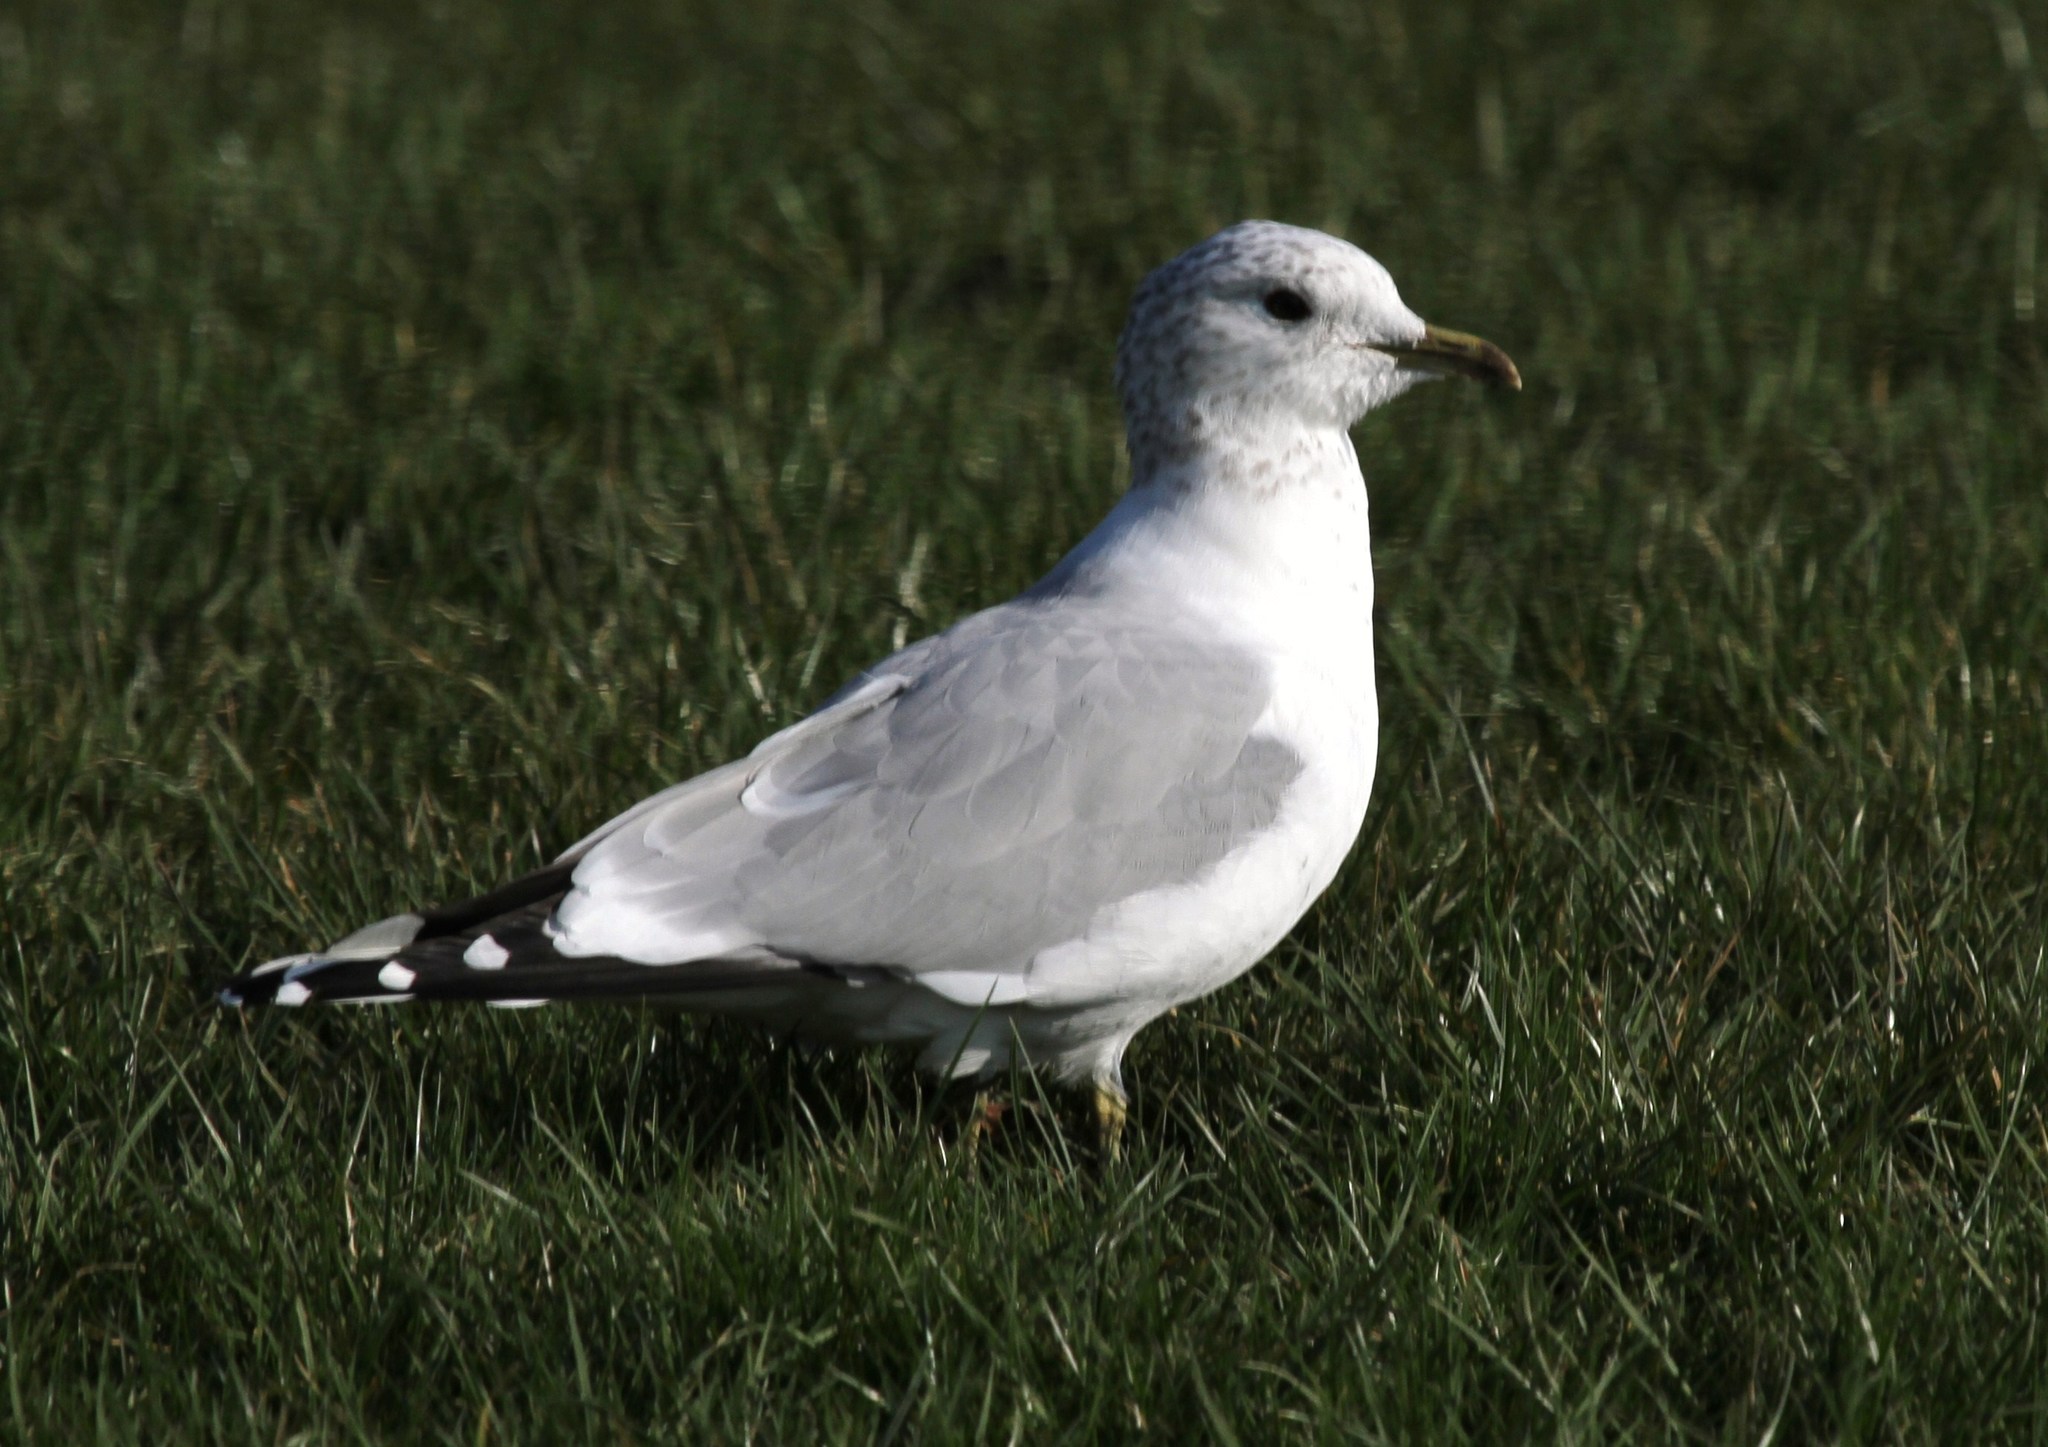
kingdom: Animalia
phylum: Chordata
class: Aves
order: Charadriiformes
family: Laridae
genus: Larus
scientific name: Larus canus
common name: Mew gull
